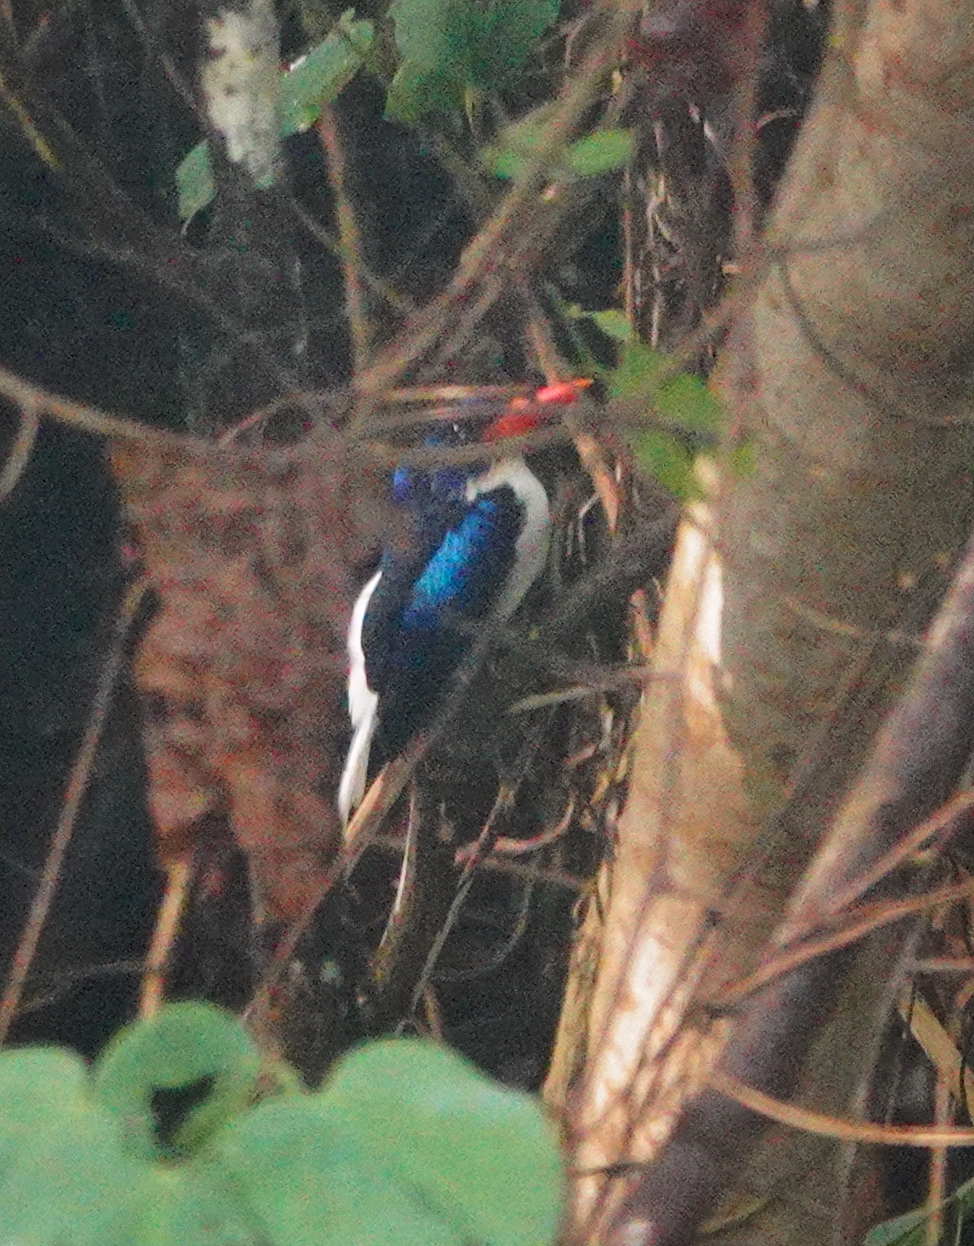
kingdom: Animalia
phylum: Chordata
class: Aves
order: Coraciiformes
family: Alcedinidae
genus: Tanysiptera
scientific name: Tanysiptera galatea
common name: Common paradise-kingfisher
